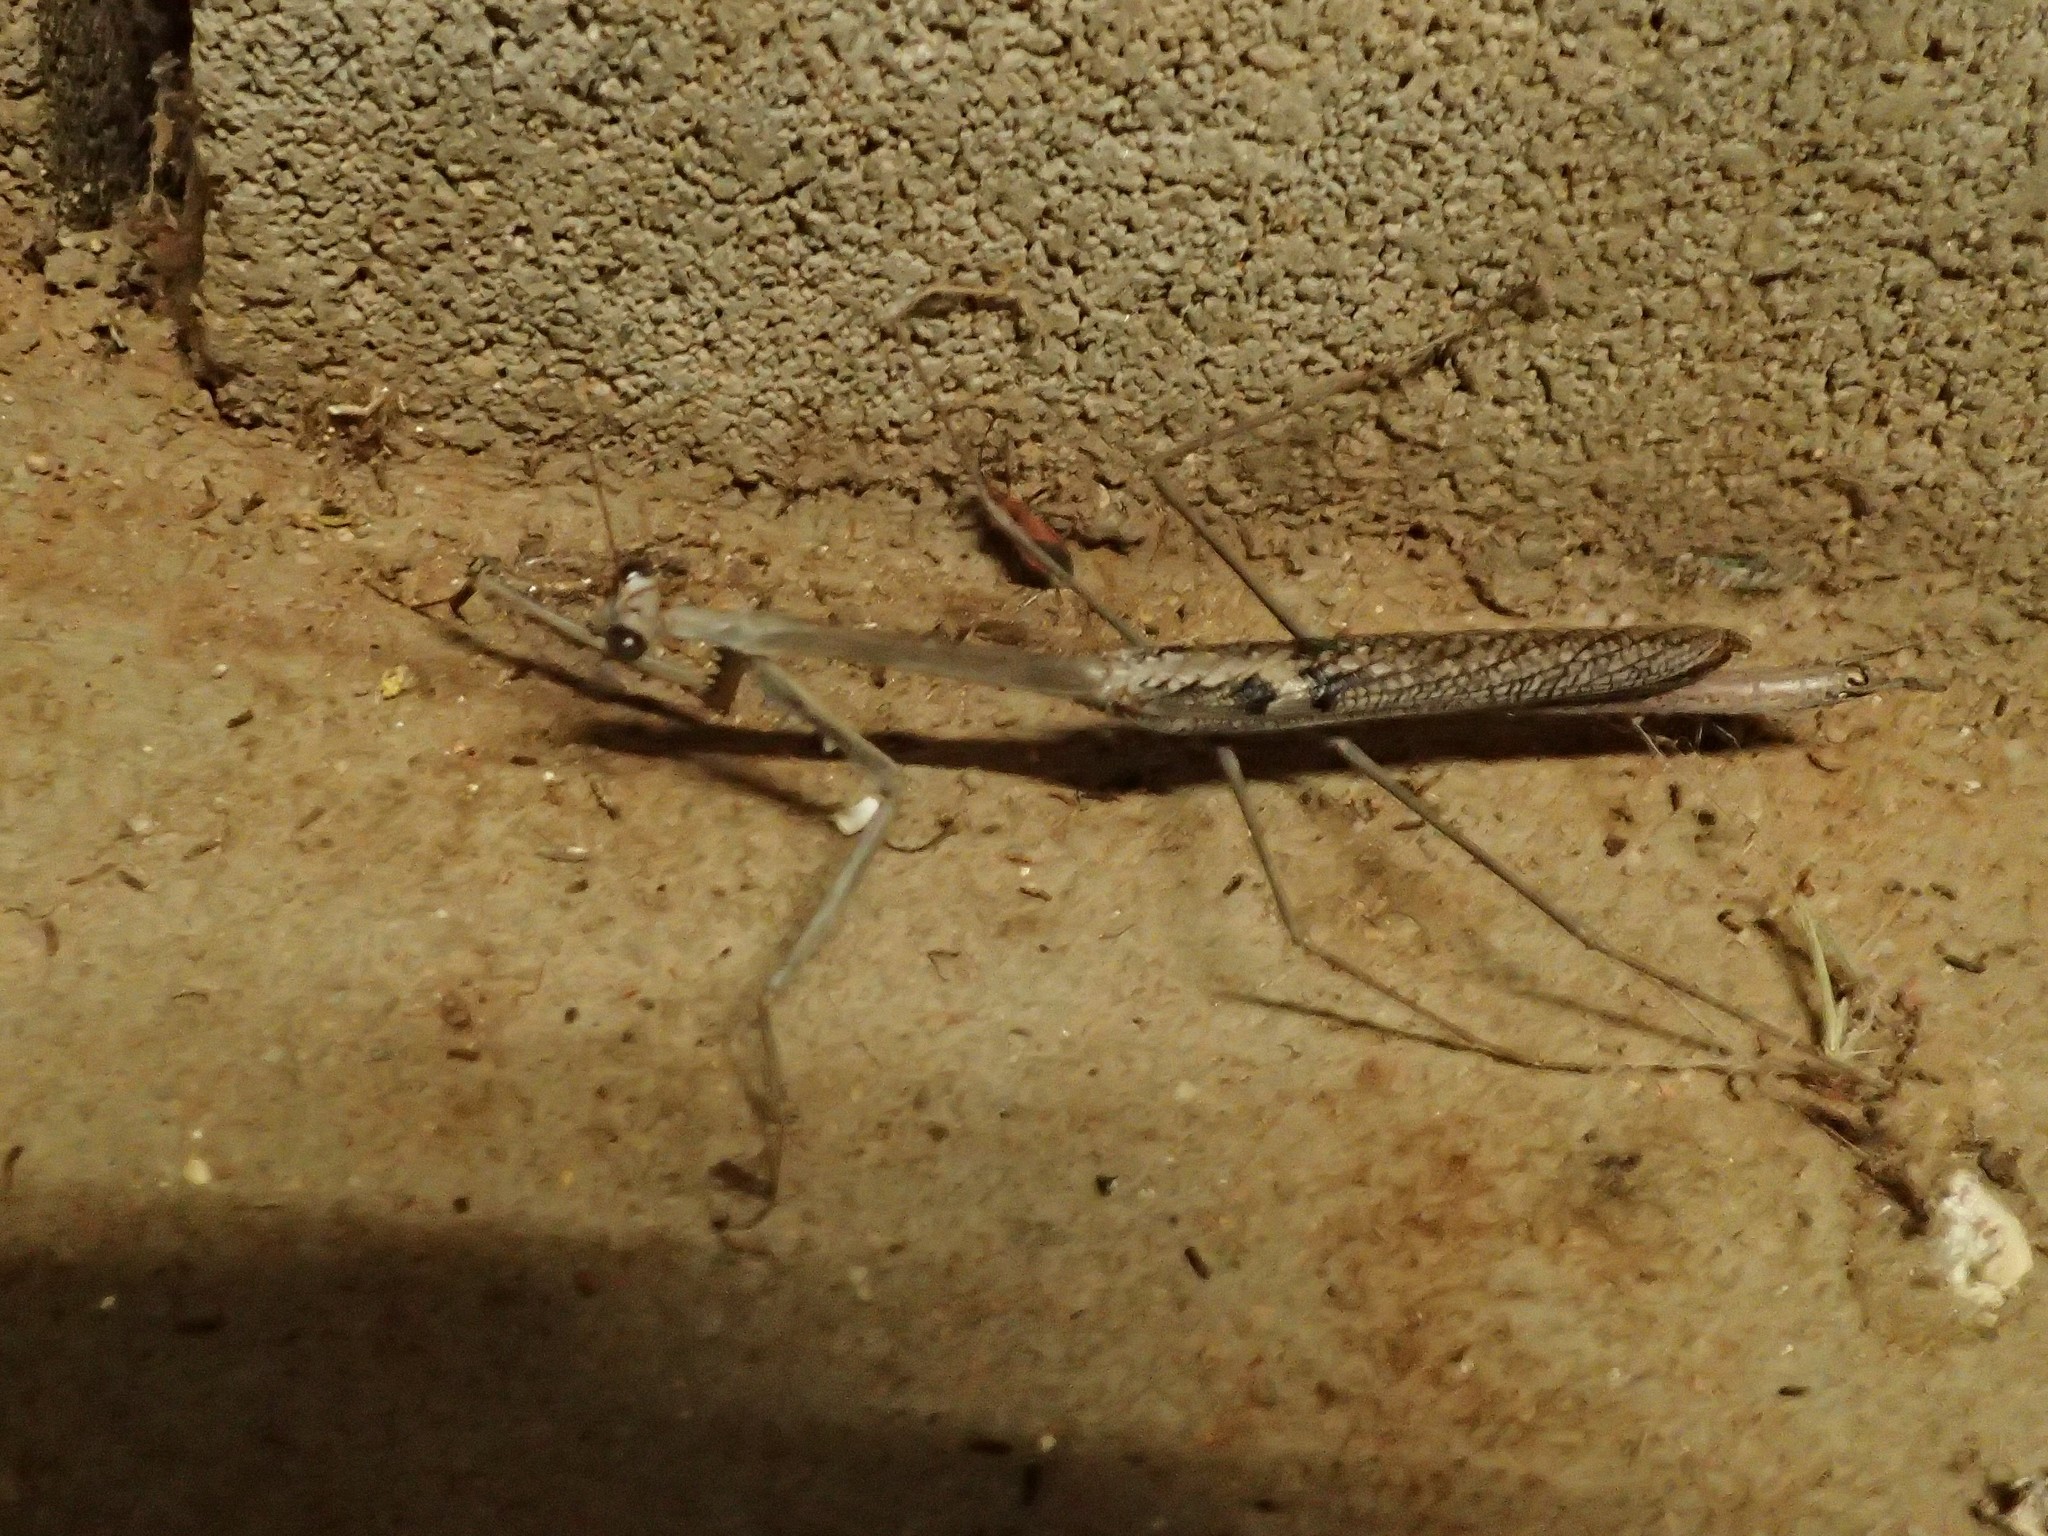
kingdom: Animalia
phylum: Arthropoda
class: Insecta
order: Mantodea
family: Mantidae
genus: Archimantis
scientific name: Archimantis quinquelobata
